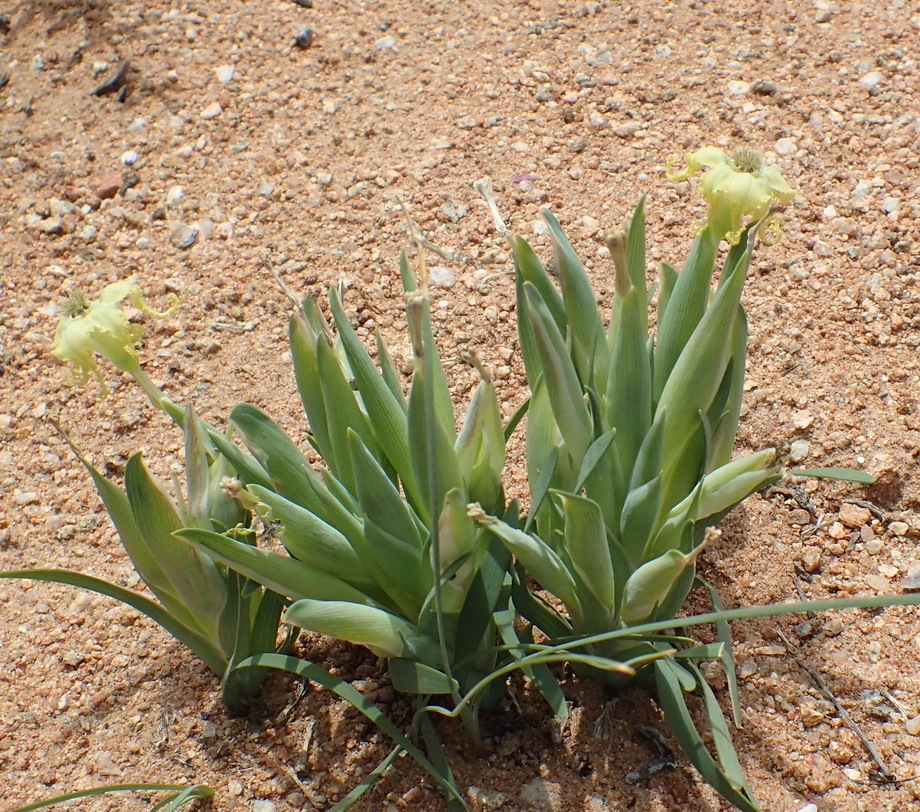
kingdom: Plantae
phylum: Tracheophyta
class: Liliopsida
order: Asparagales
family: Iridaceae
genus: Ferraria
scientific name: Ferraria macrochlamys
